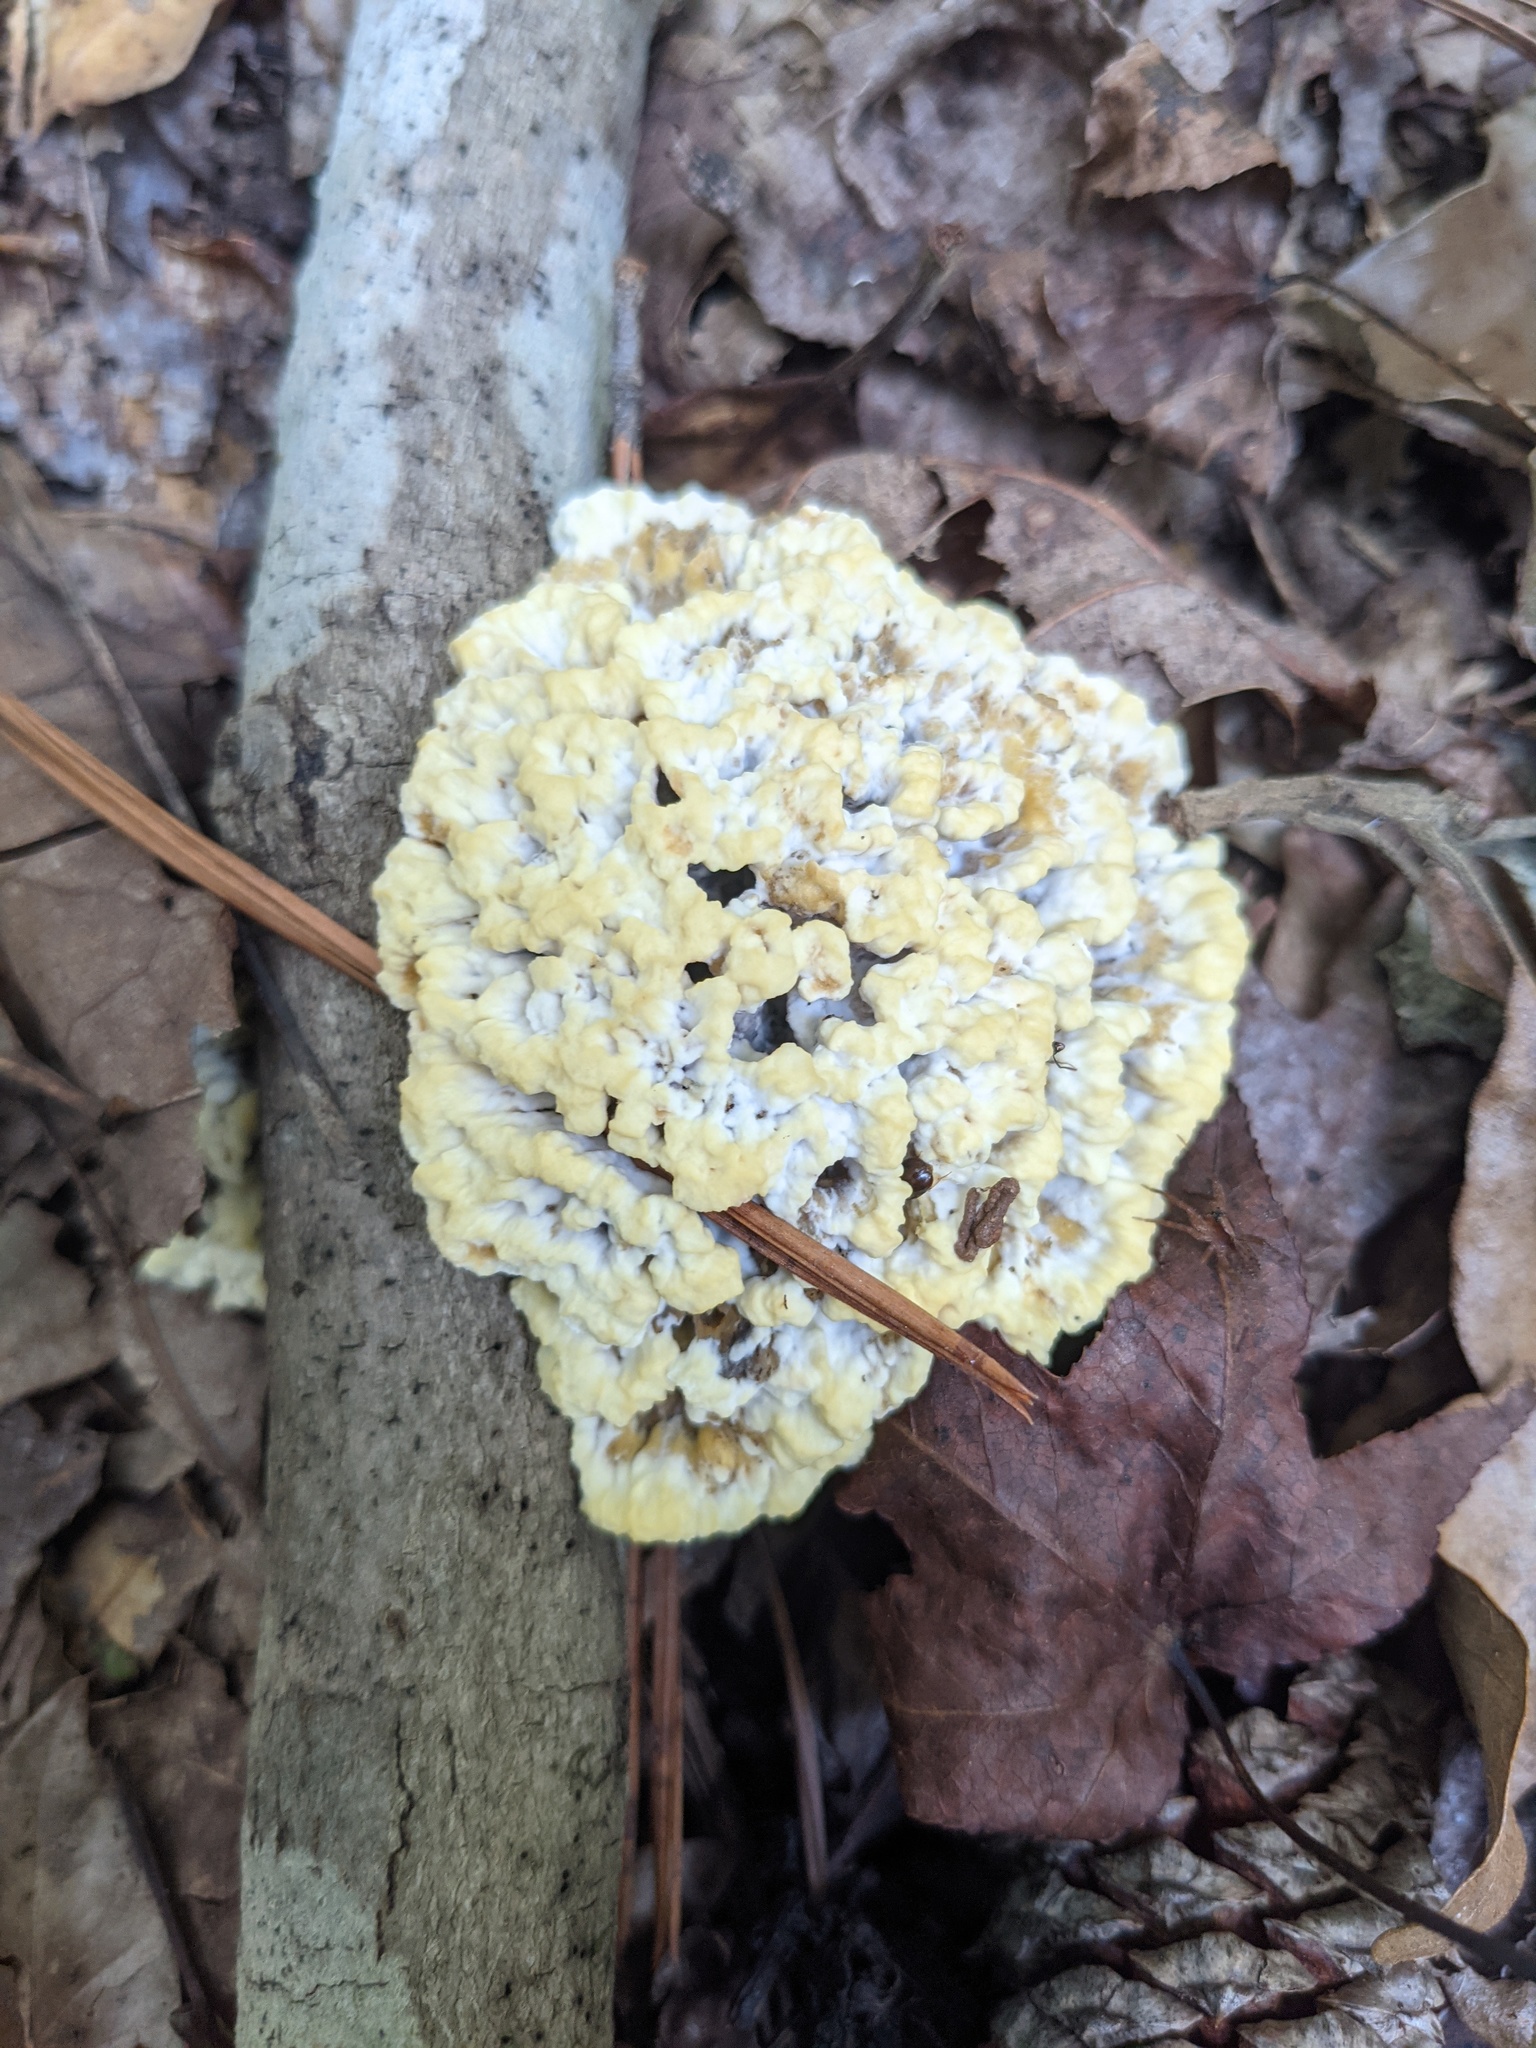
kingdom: Fungi
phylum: Basidiomycota
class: Agaricomycetes
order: Thelephorales
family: Thelephoraceae
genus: Thelephora
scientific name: Thelephora vialis
